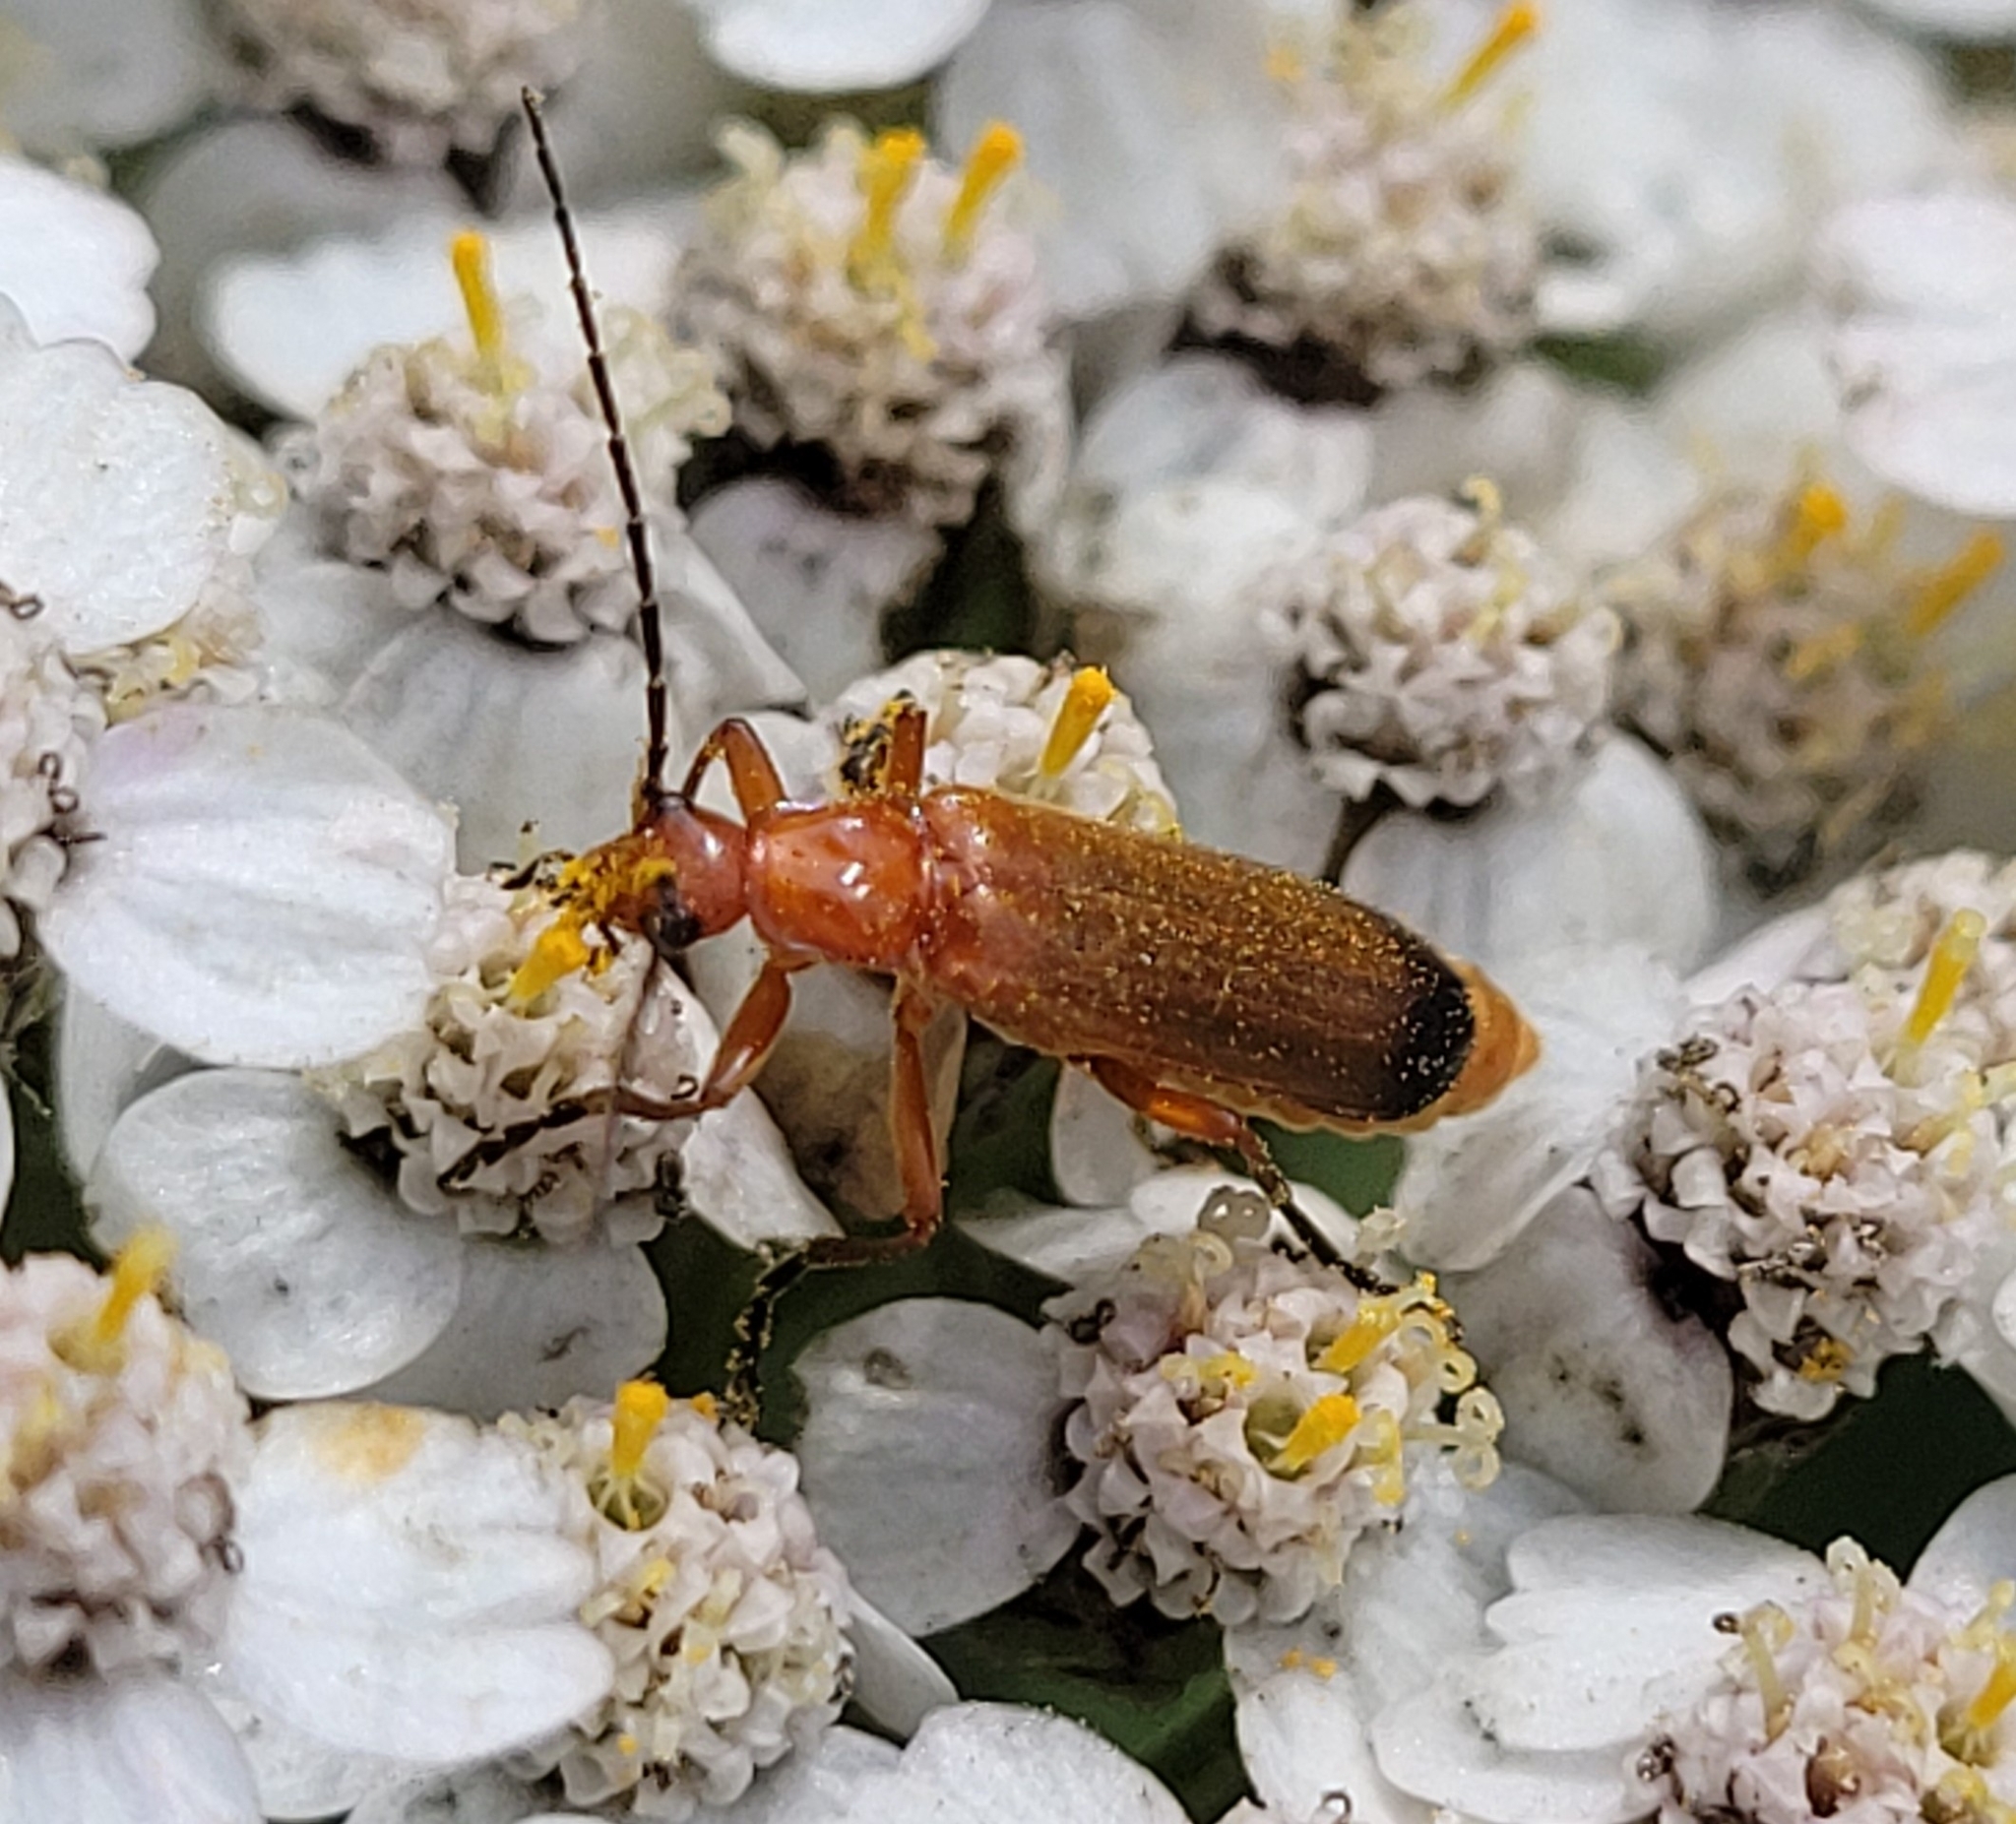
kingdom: Animalia
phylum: Arthropoda
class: Insecta
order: Coleoptera
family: Cantharidae
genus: Rhagonycha
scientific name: Rhagonycha fulva
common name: Common red soldier beetle
